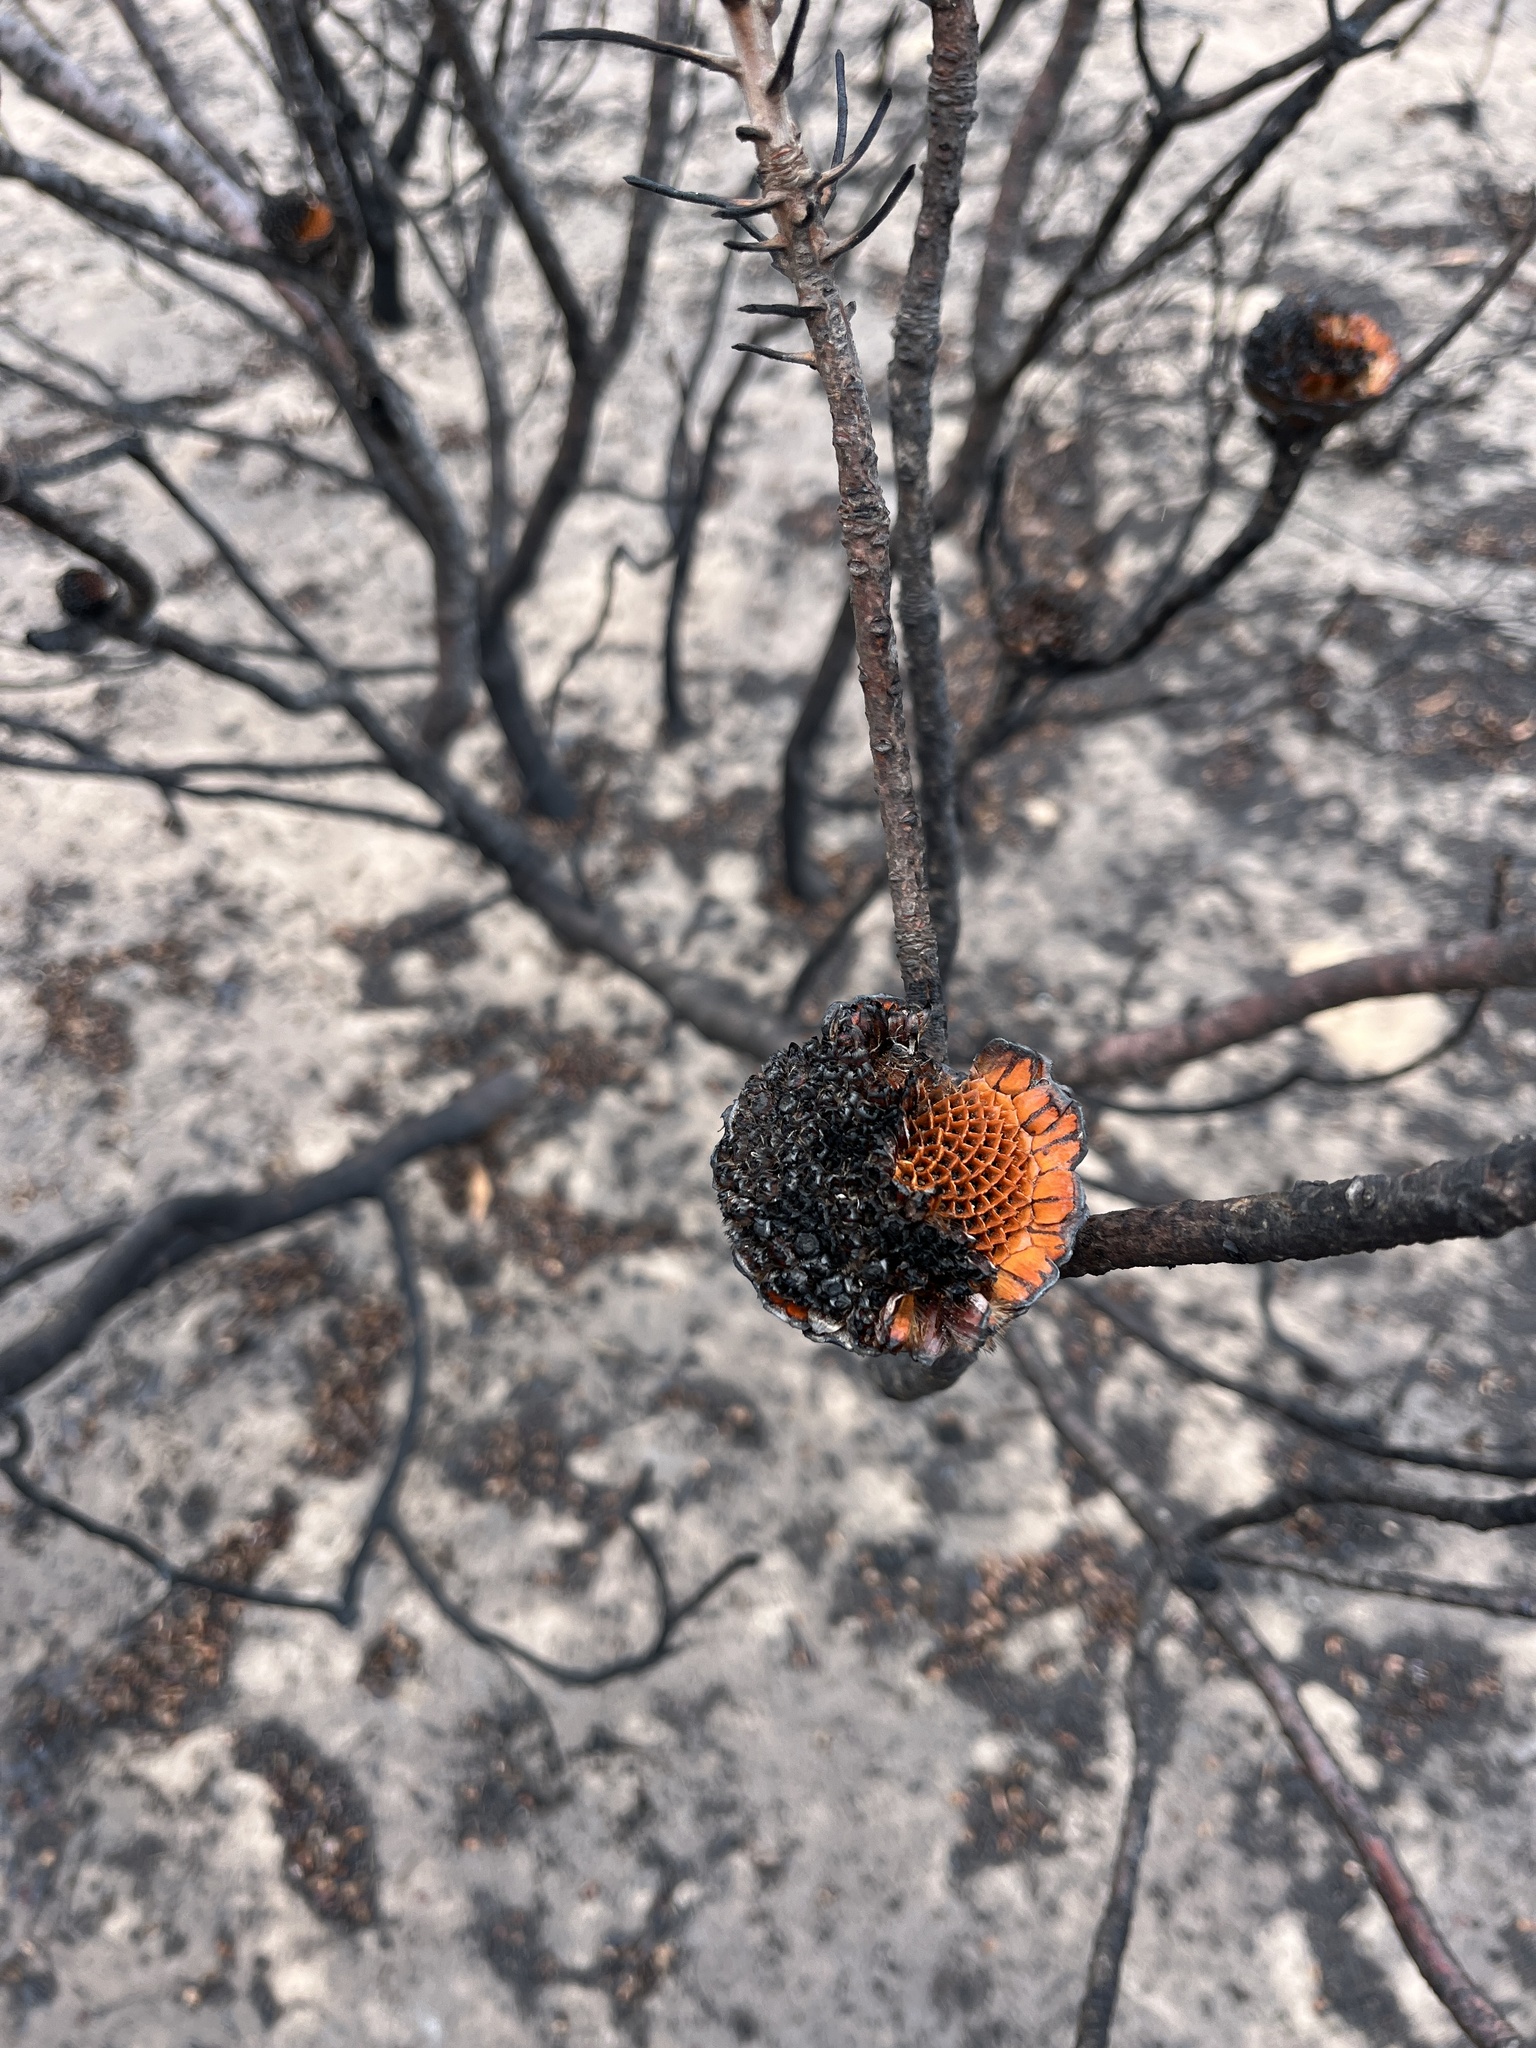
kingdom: Plantae
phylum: Tracheophyta
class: Magnoliopsida
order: Proteales
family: Proteaceae
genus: Protea
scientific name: Protea susannae
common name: Foetid-leaf sugarbush
